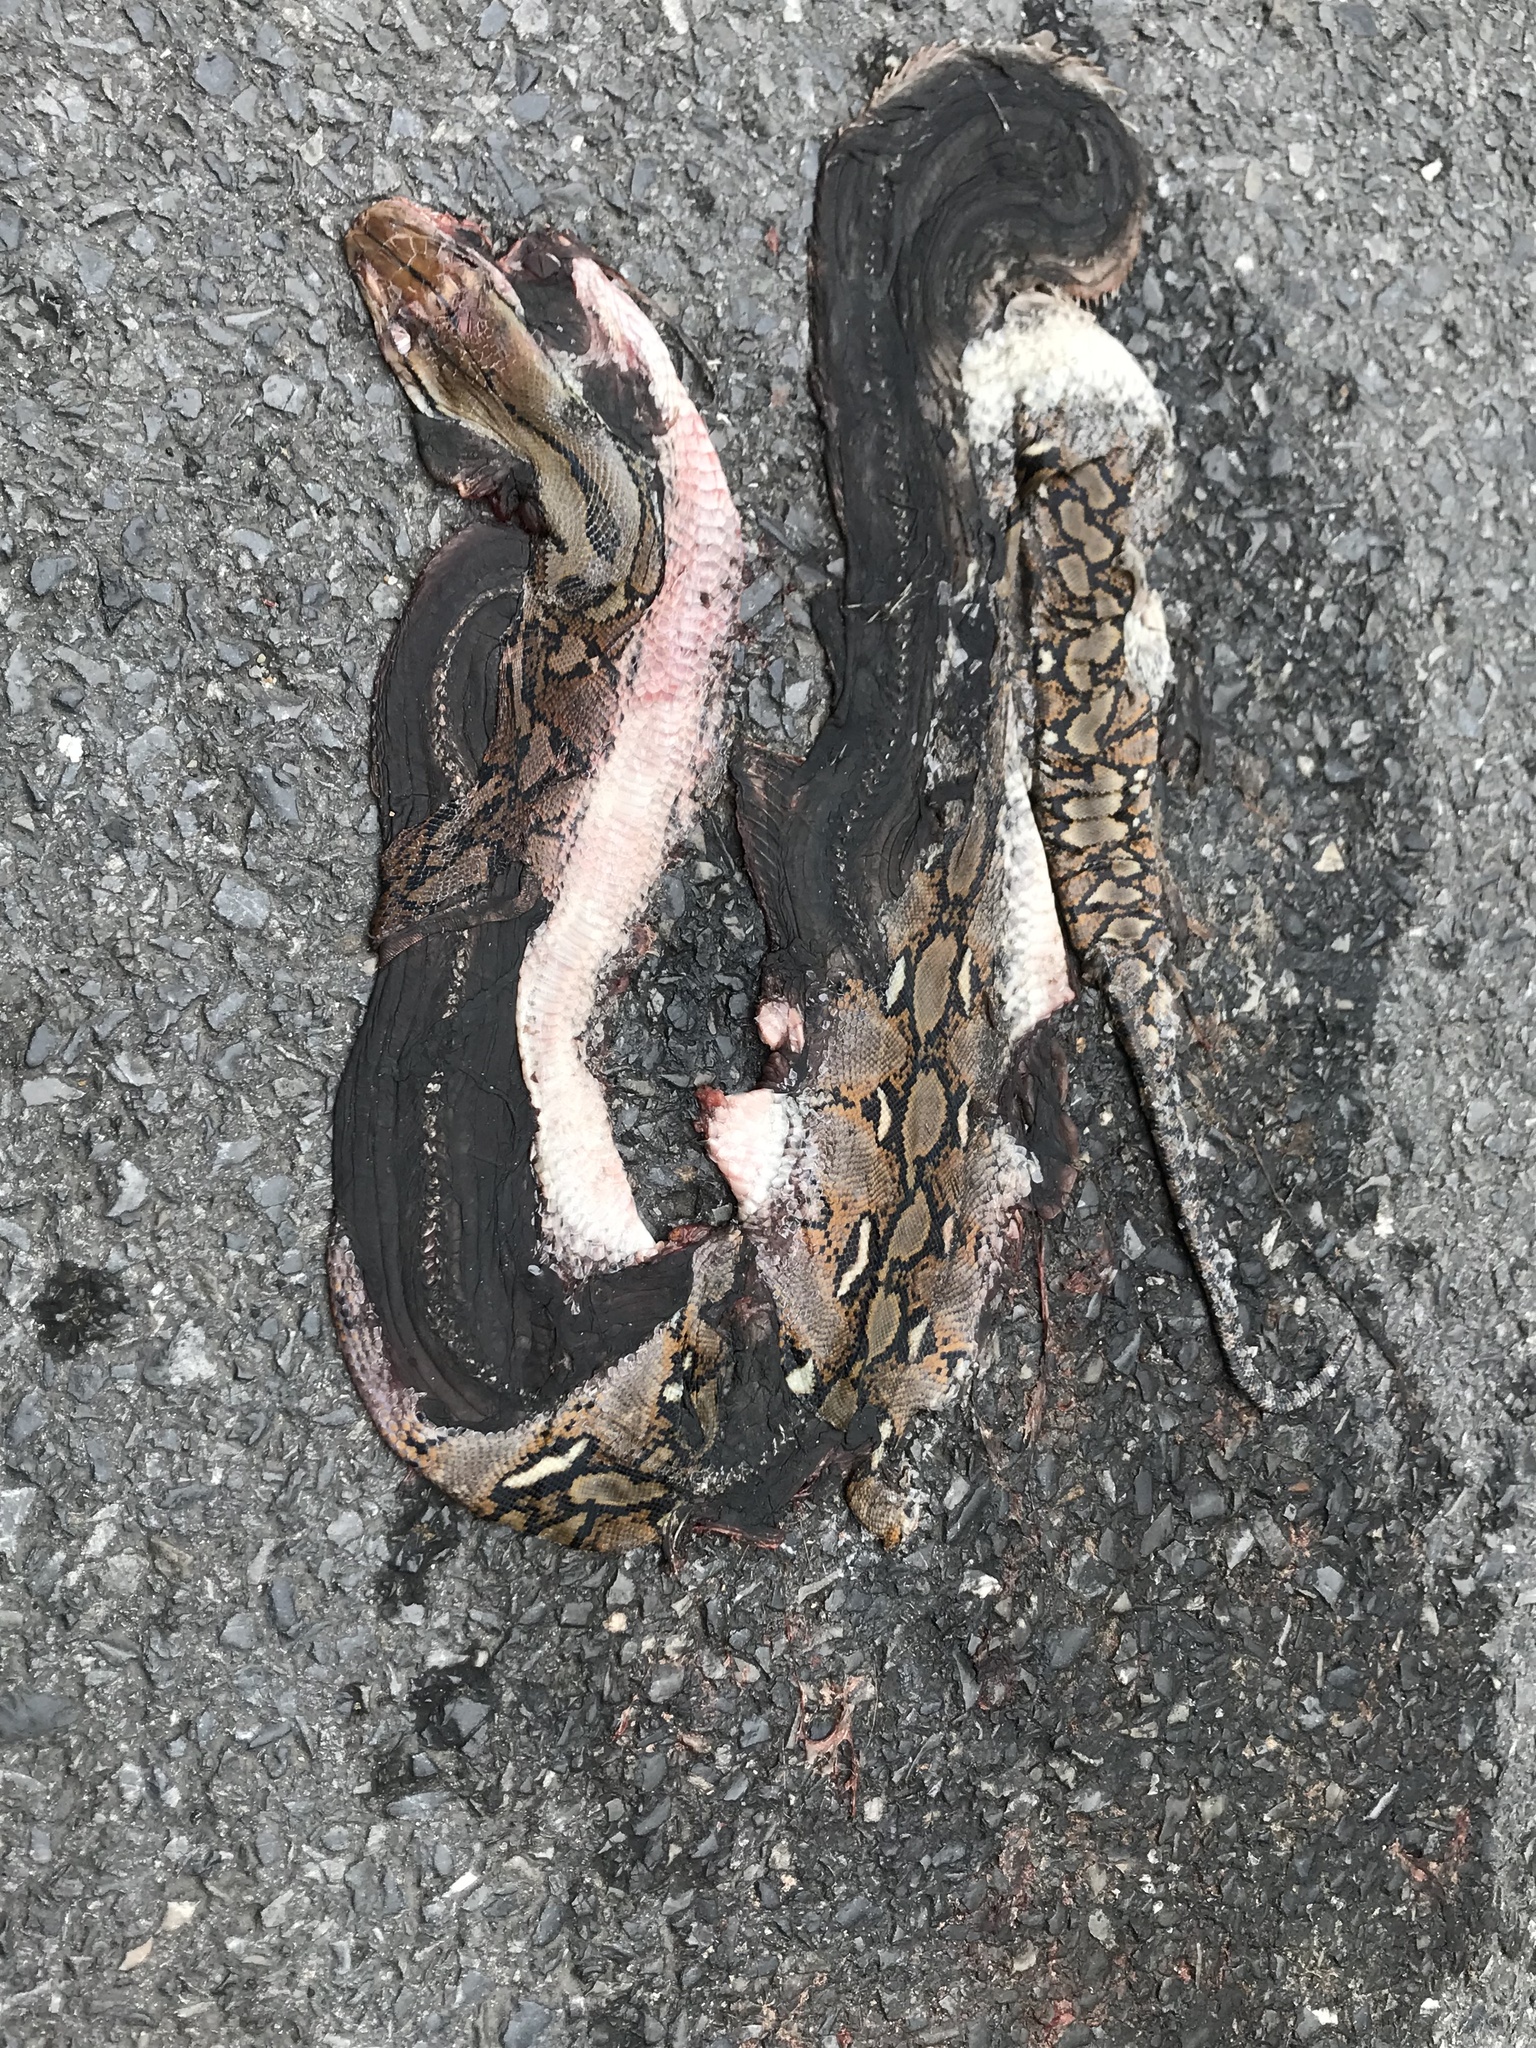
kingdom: Animalia
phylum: Chordata
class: Squamata
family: Pythonidae
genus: Malayopython
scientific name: Malayopython reticulatus
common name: Reticulated python
